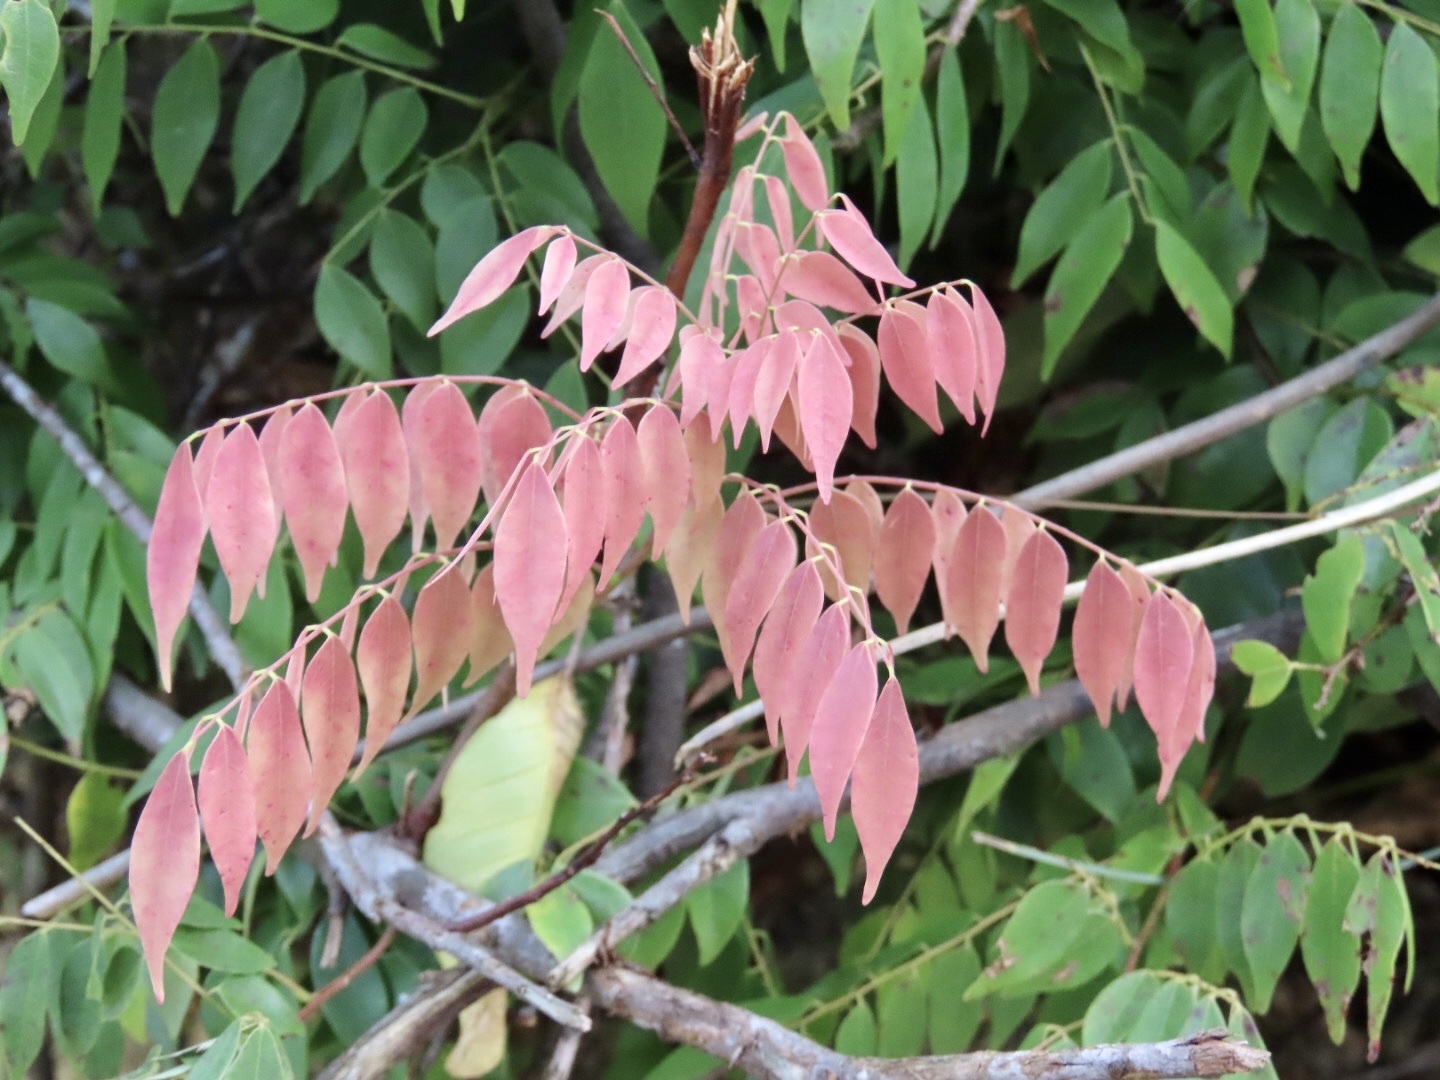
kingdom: Plantae
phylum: Tracheophyta
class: Magnoliopsida
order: Oxalidales
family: Connaraceae
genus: Rourea
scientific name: Rourea microphylla
